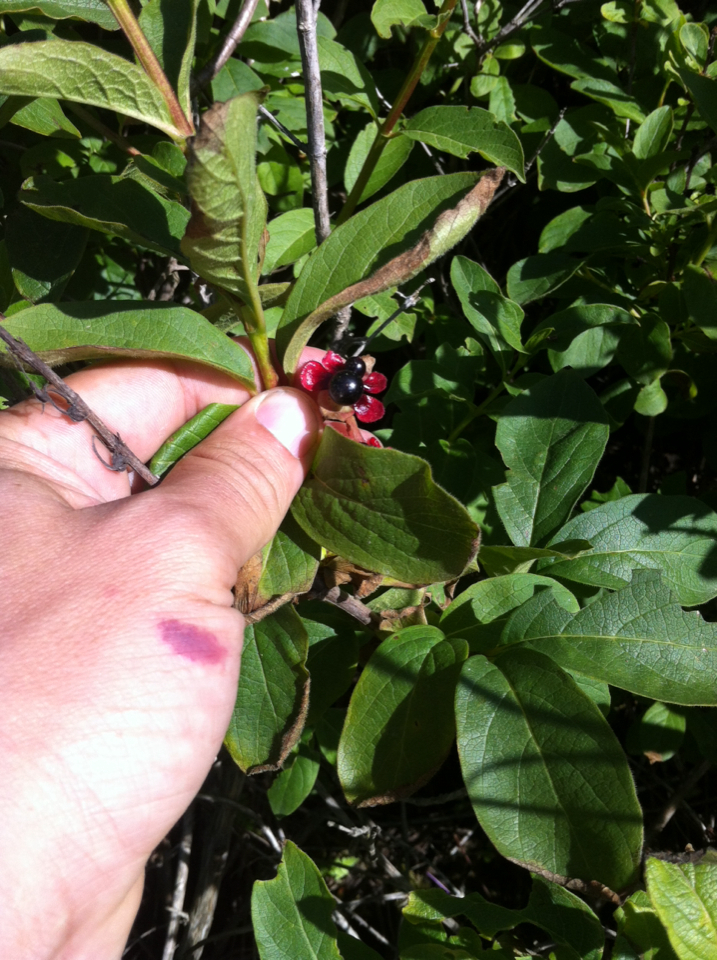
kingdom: Plantae
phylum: Tracheophyta
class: Magnoliopsida
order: Dipsacales
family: Caprifoliaceae
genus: Lonicera
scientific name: Lonicera involucrata
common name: Californian honeysuckle
